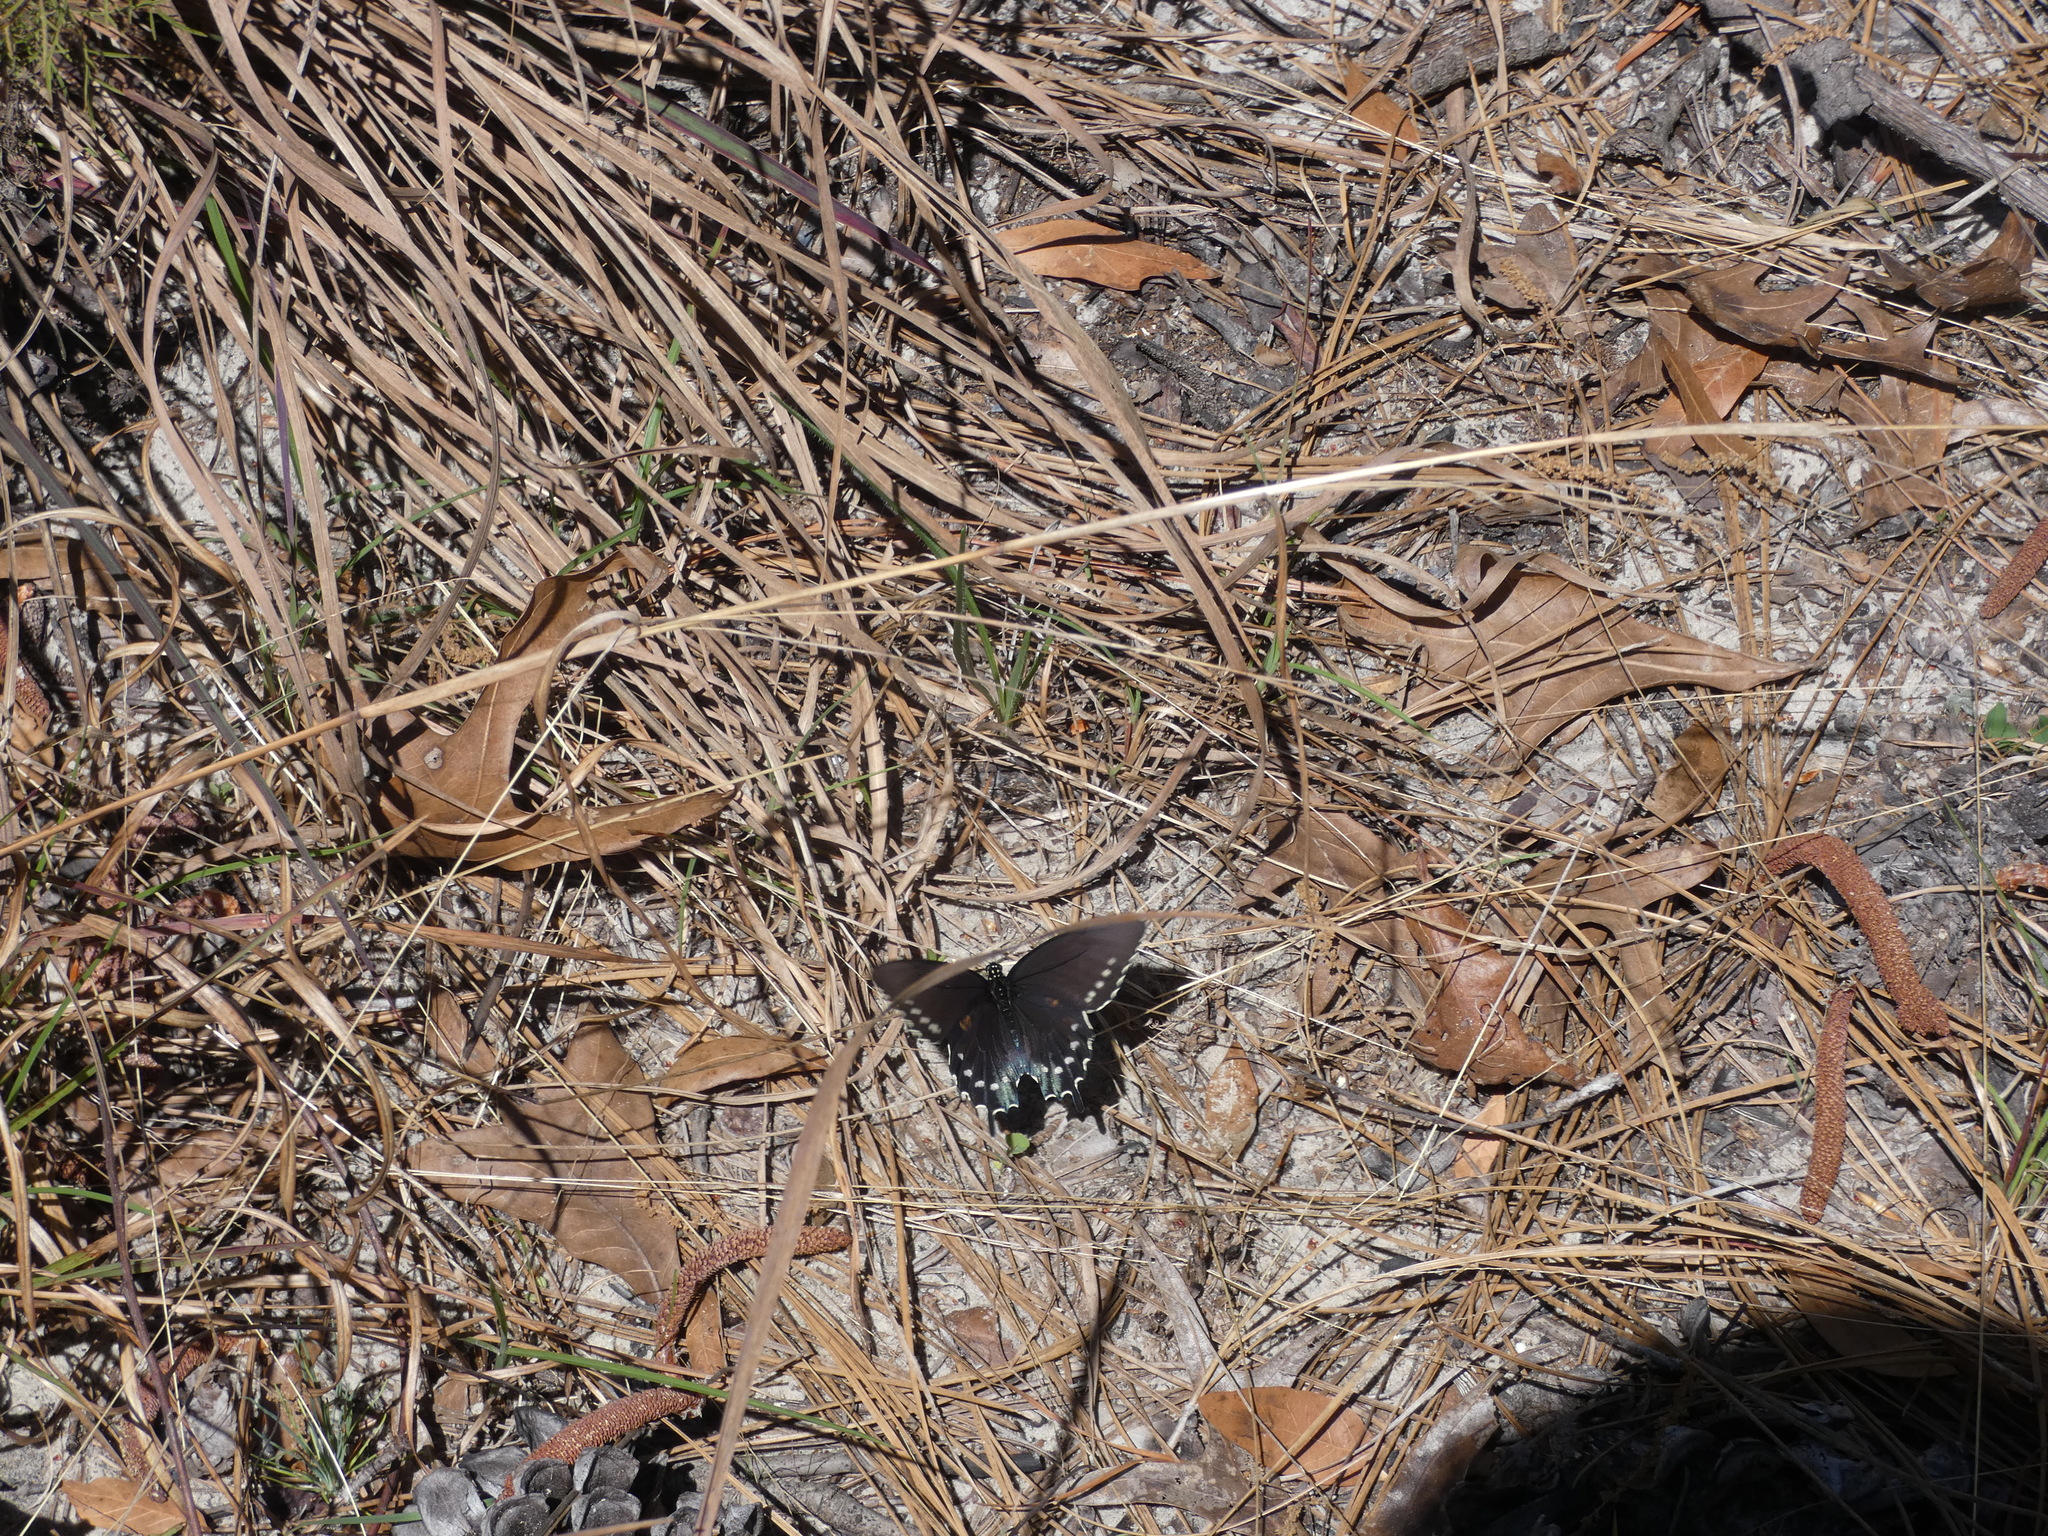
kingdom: Animalia
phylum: Arthropoda
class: Insecta
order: Lepidoptera
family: Papilionidae
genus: Battus
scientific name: Battus philenor
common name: Pipevine swallowtail
